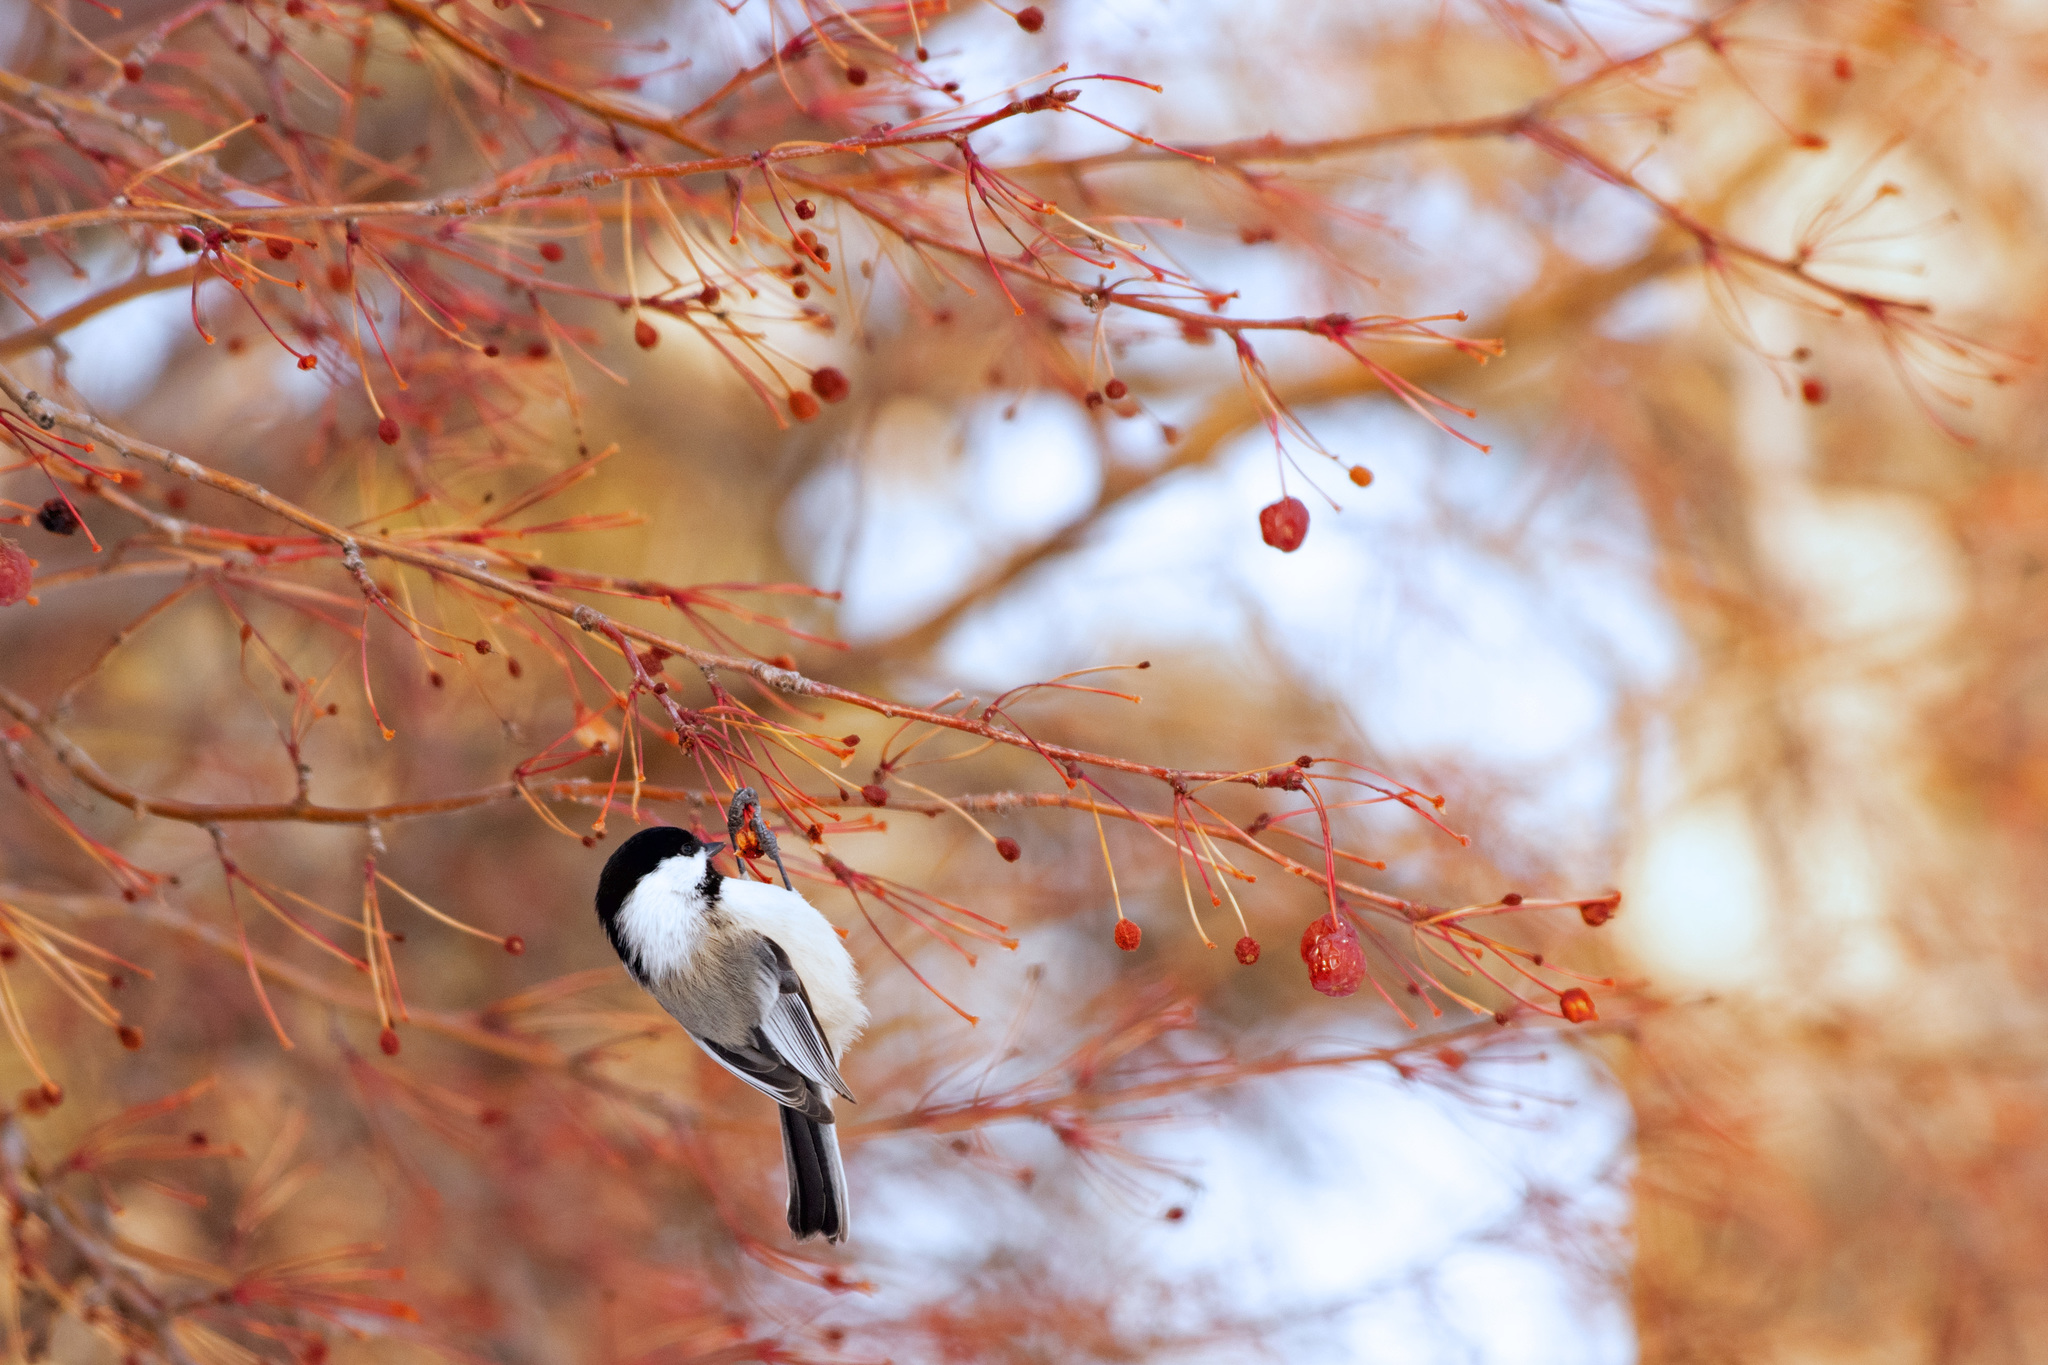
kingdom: Animalia
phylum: Chordata
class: Aves
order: Passeriformes
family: Paridae
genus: Poecile
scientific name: Poecile atricapillus
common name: Black-capped chickadee
